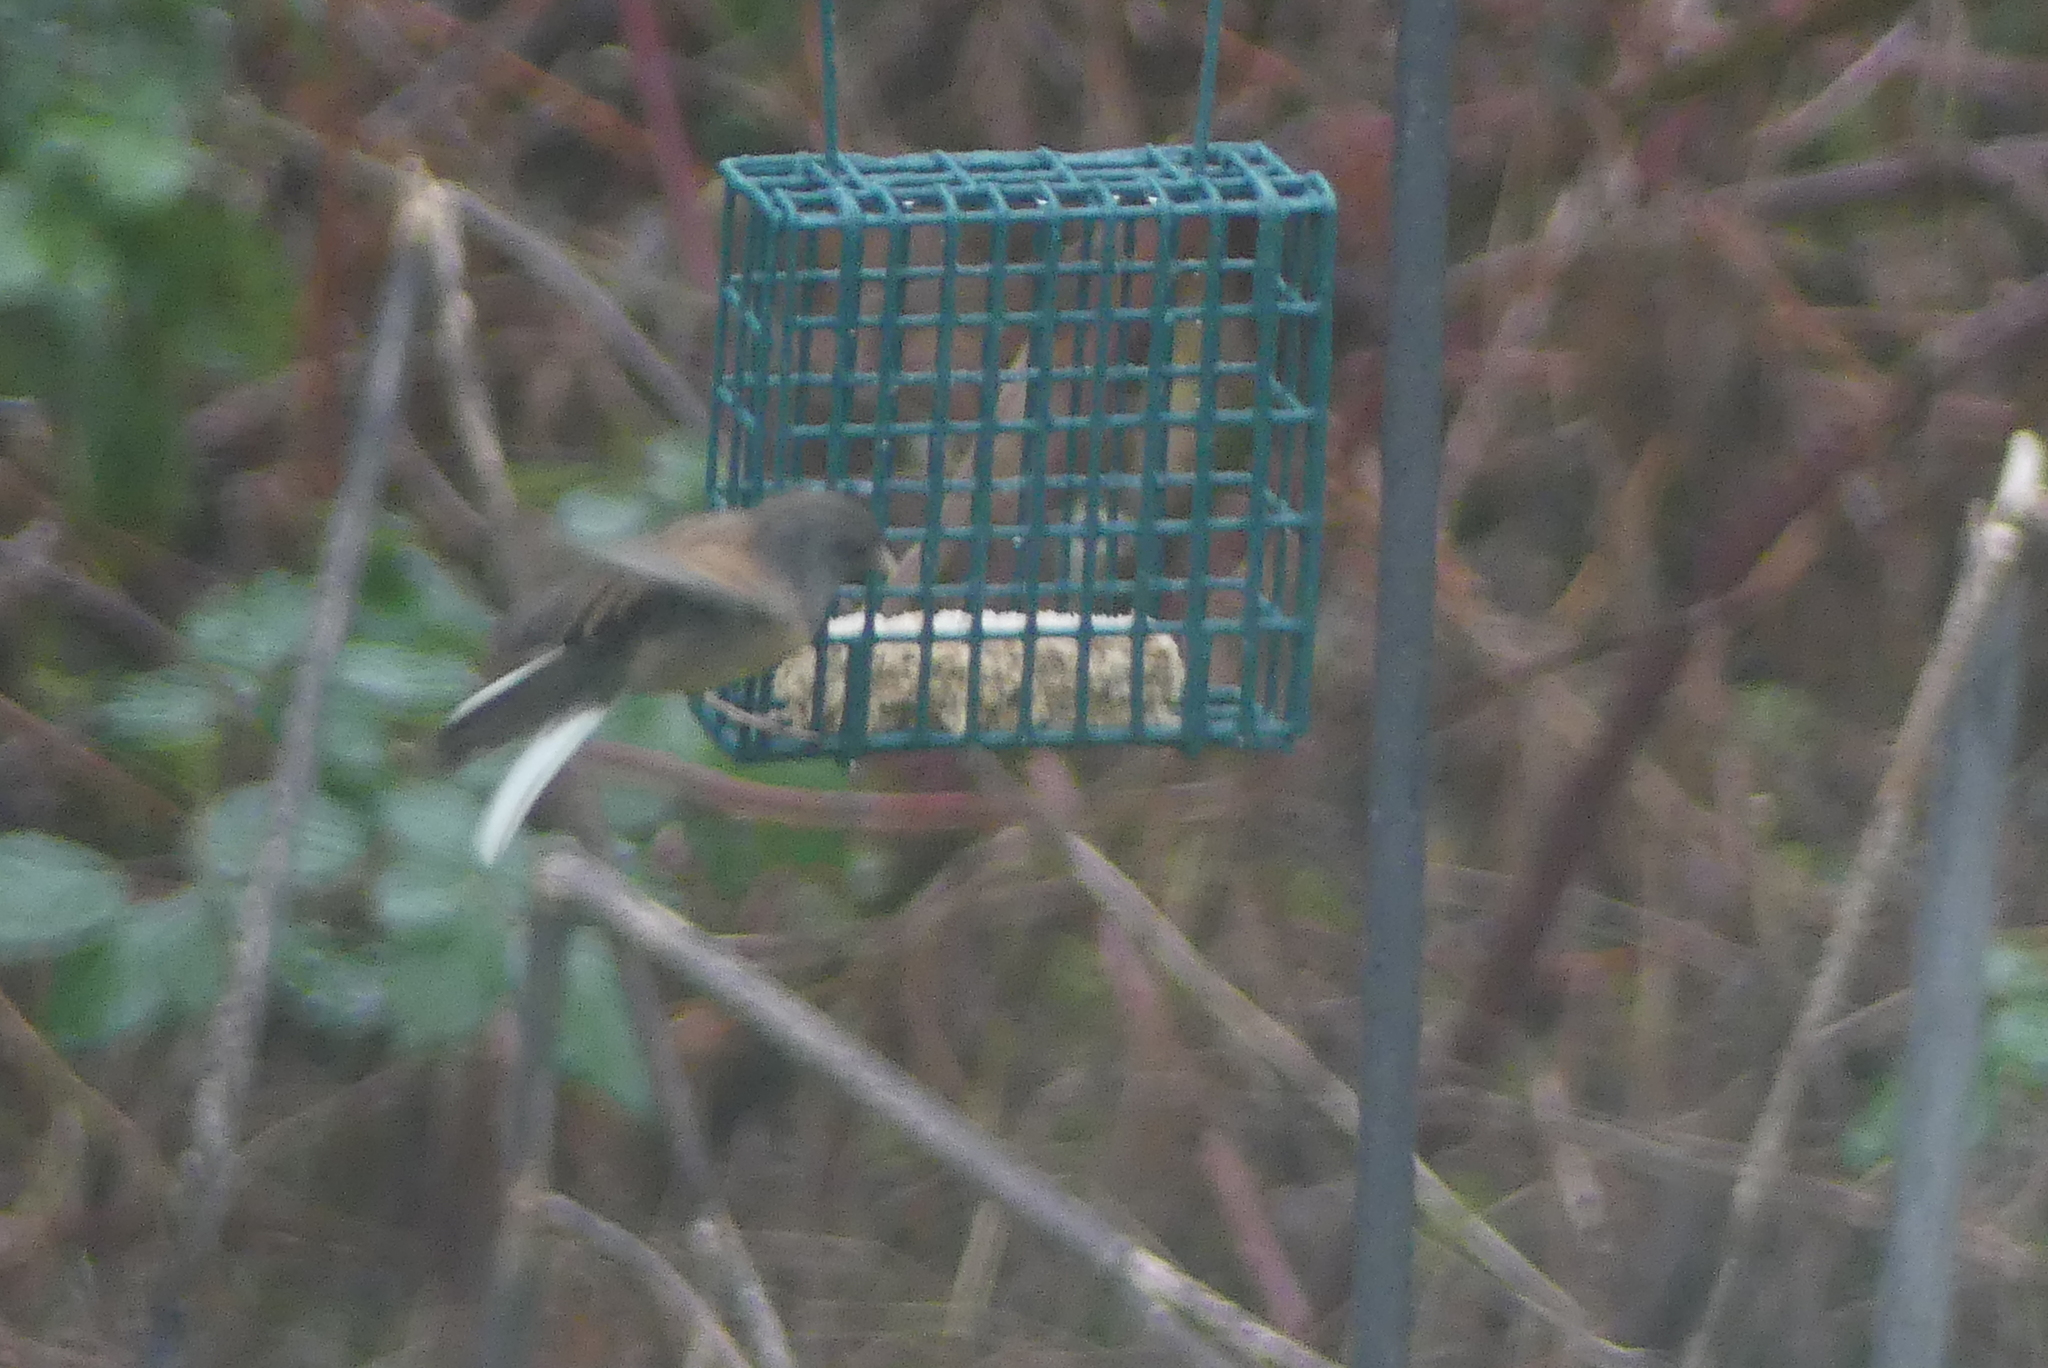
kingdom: Animalia
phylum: Chordata
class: Aves
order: Passeriformes
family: Passerellidae
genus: Junco
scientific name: Junco hyemalis
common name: Dark-eyed junco
